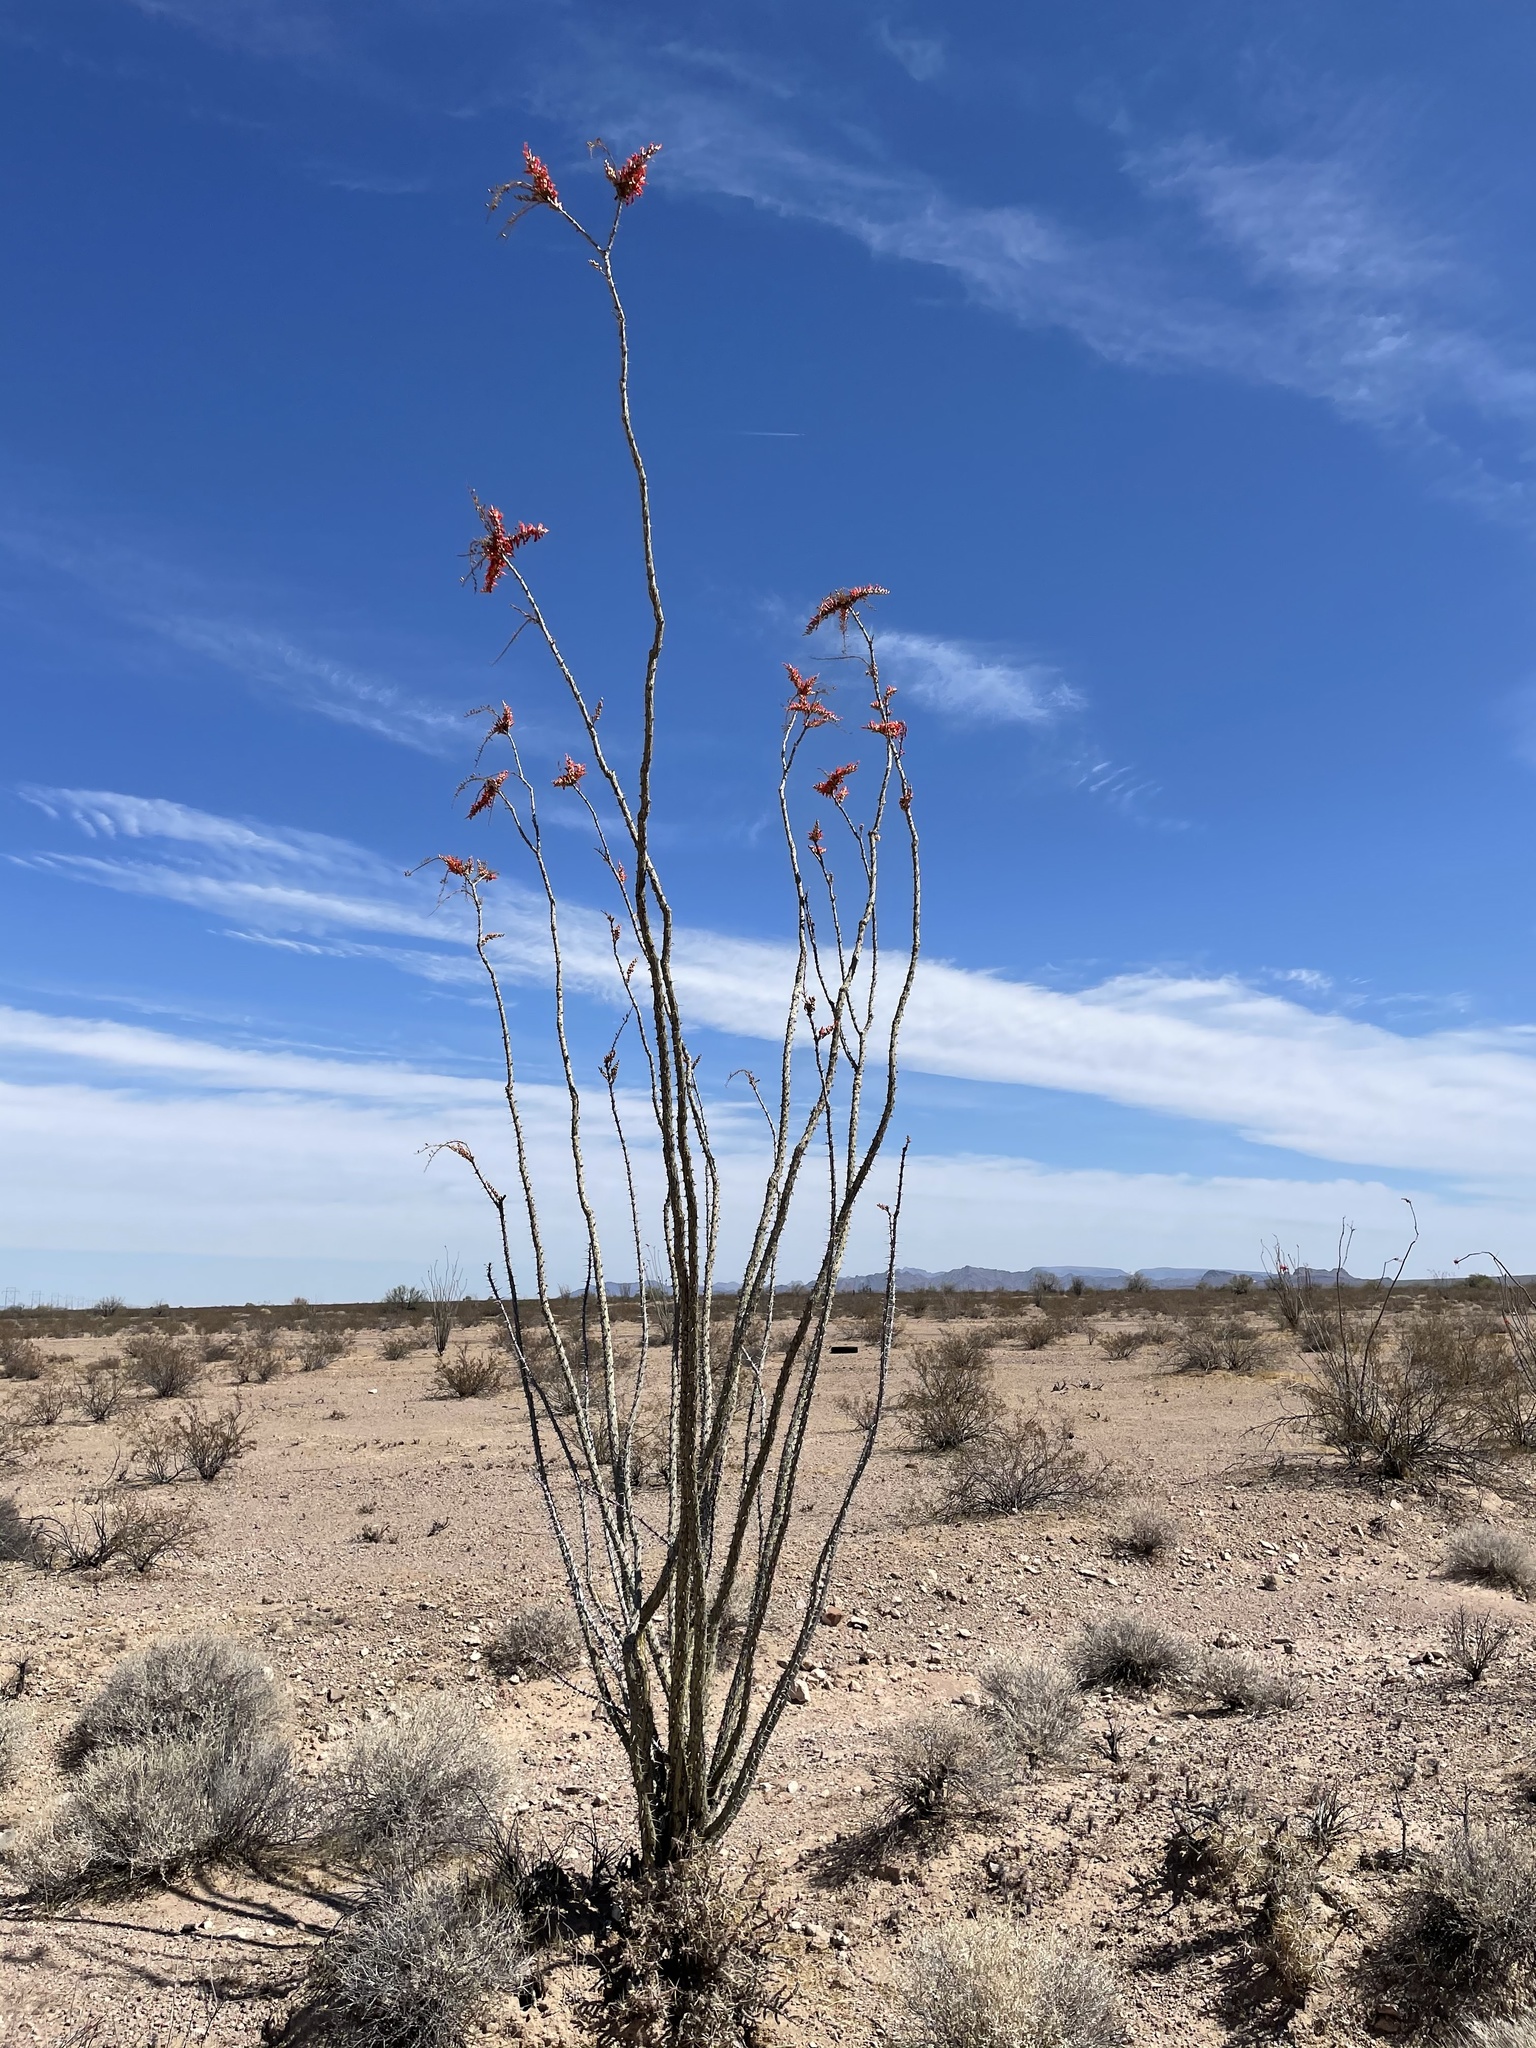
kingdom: Plantae
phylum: Tracheophyta
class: Magnoliopsida
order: Ericales
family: Fouquieriaceae
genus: Fouquieria
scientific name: Fouquieria splendens
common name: Vine-cactus
